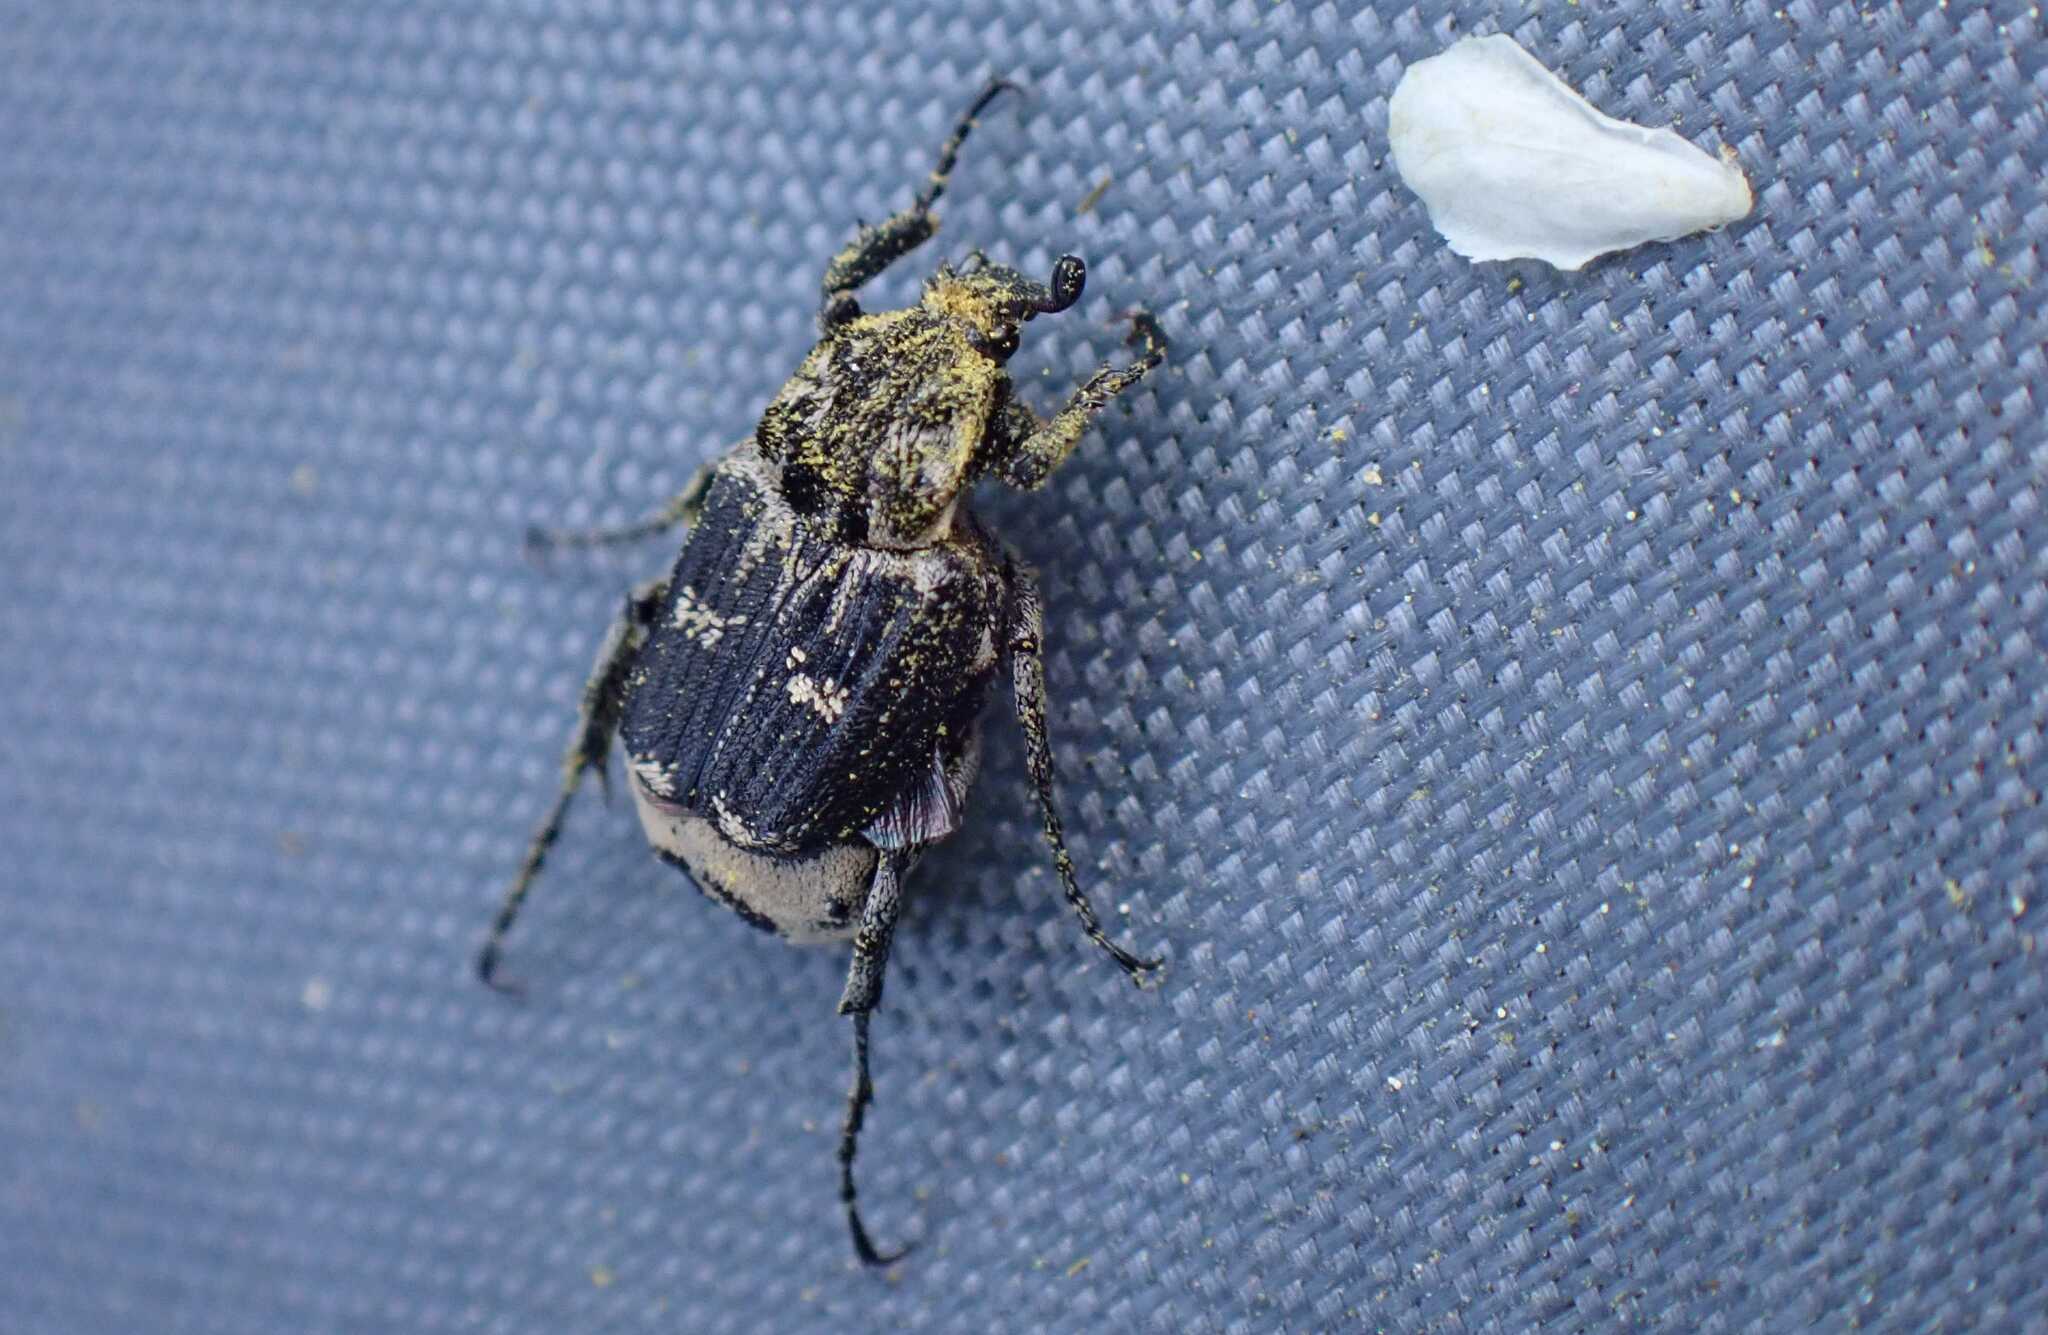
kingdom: Animalia
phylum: Arthropoda
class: Insecta
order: Coleoptera
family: Scarabaeidae
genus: Valgus
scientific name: Valgus hemipterus
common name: Bug flower chafer
